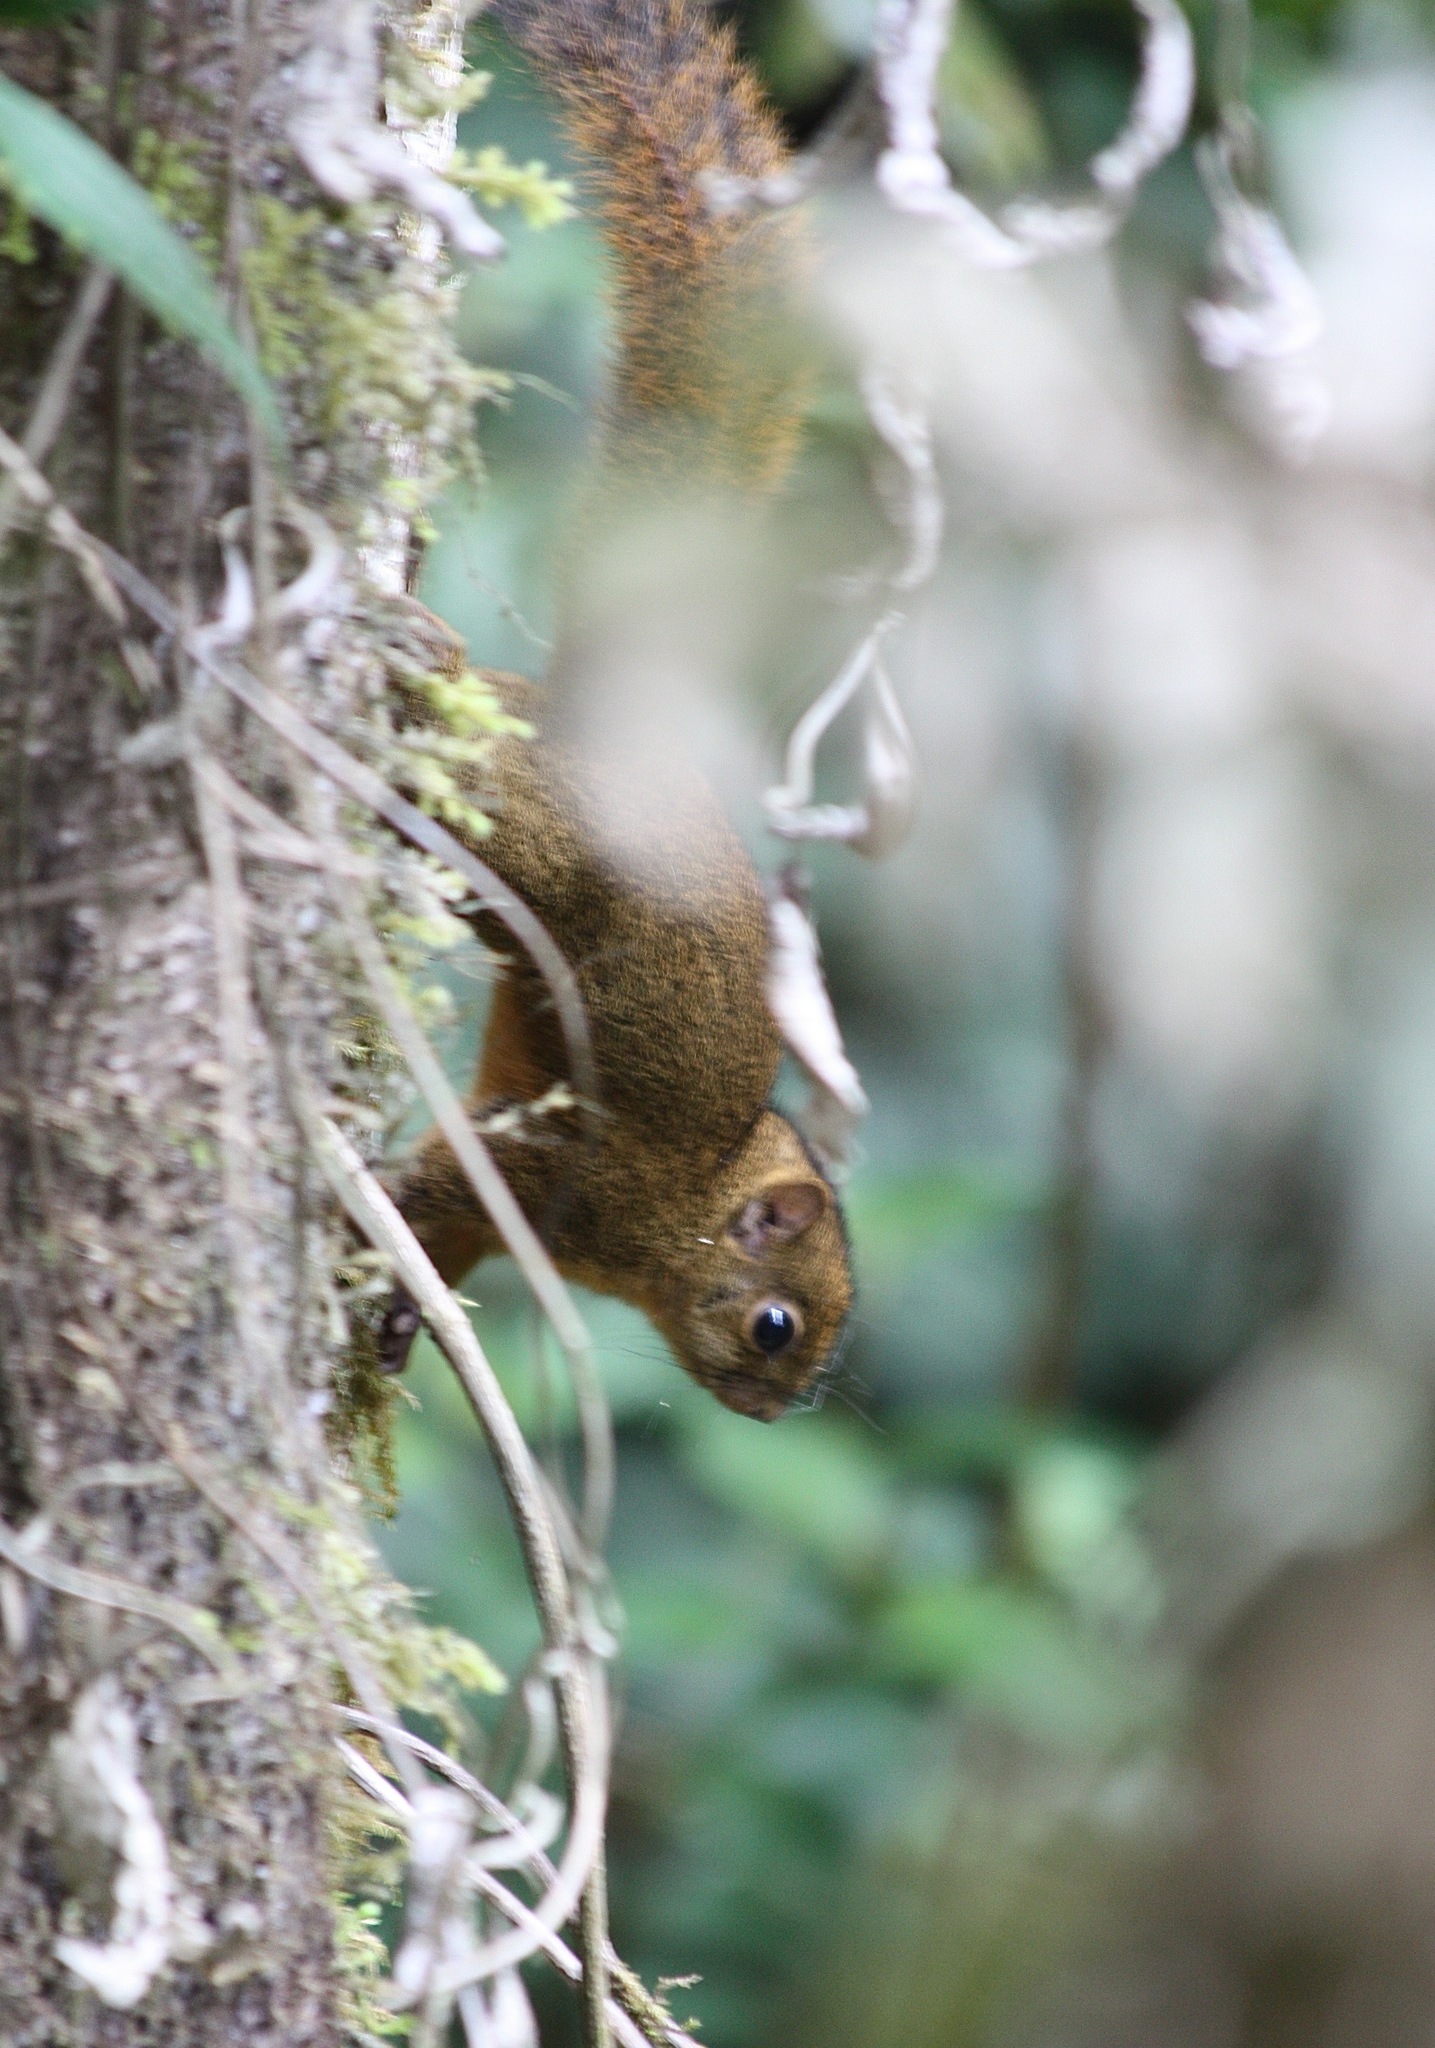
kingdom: Animalia
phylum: Chordata
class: Mammalia
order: Rodentia
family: Sciuridae
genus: Sciurus
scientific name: Sciurus granatensis
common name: Red-tailed squirrel
